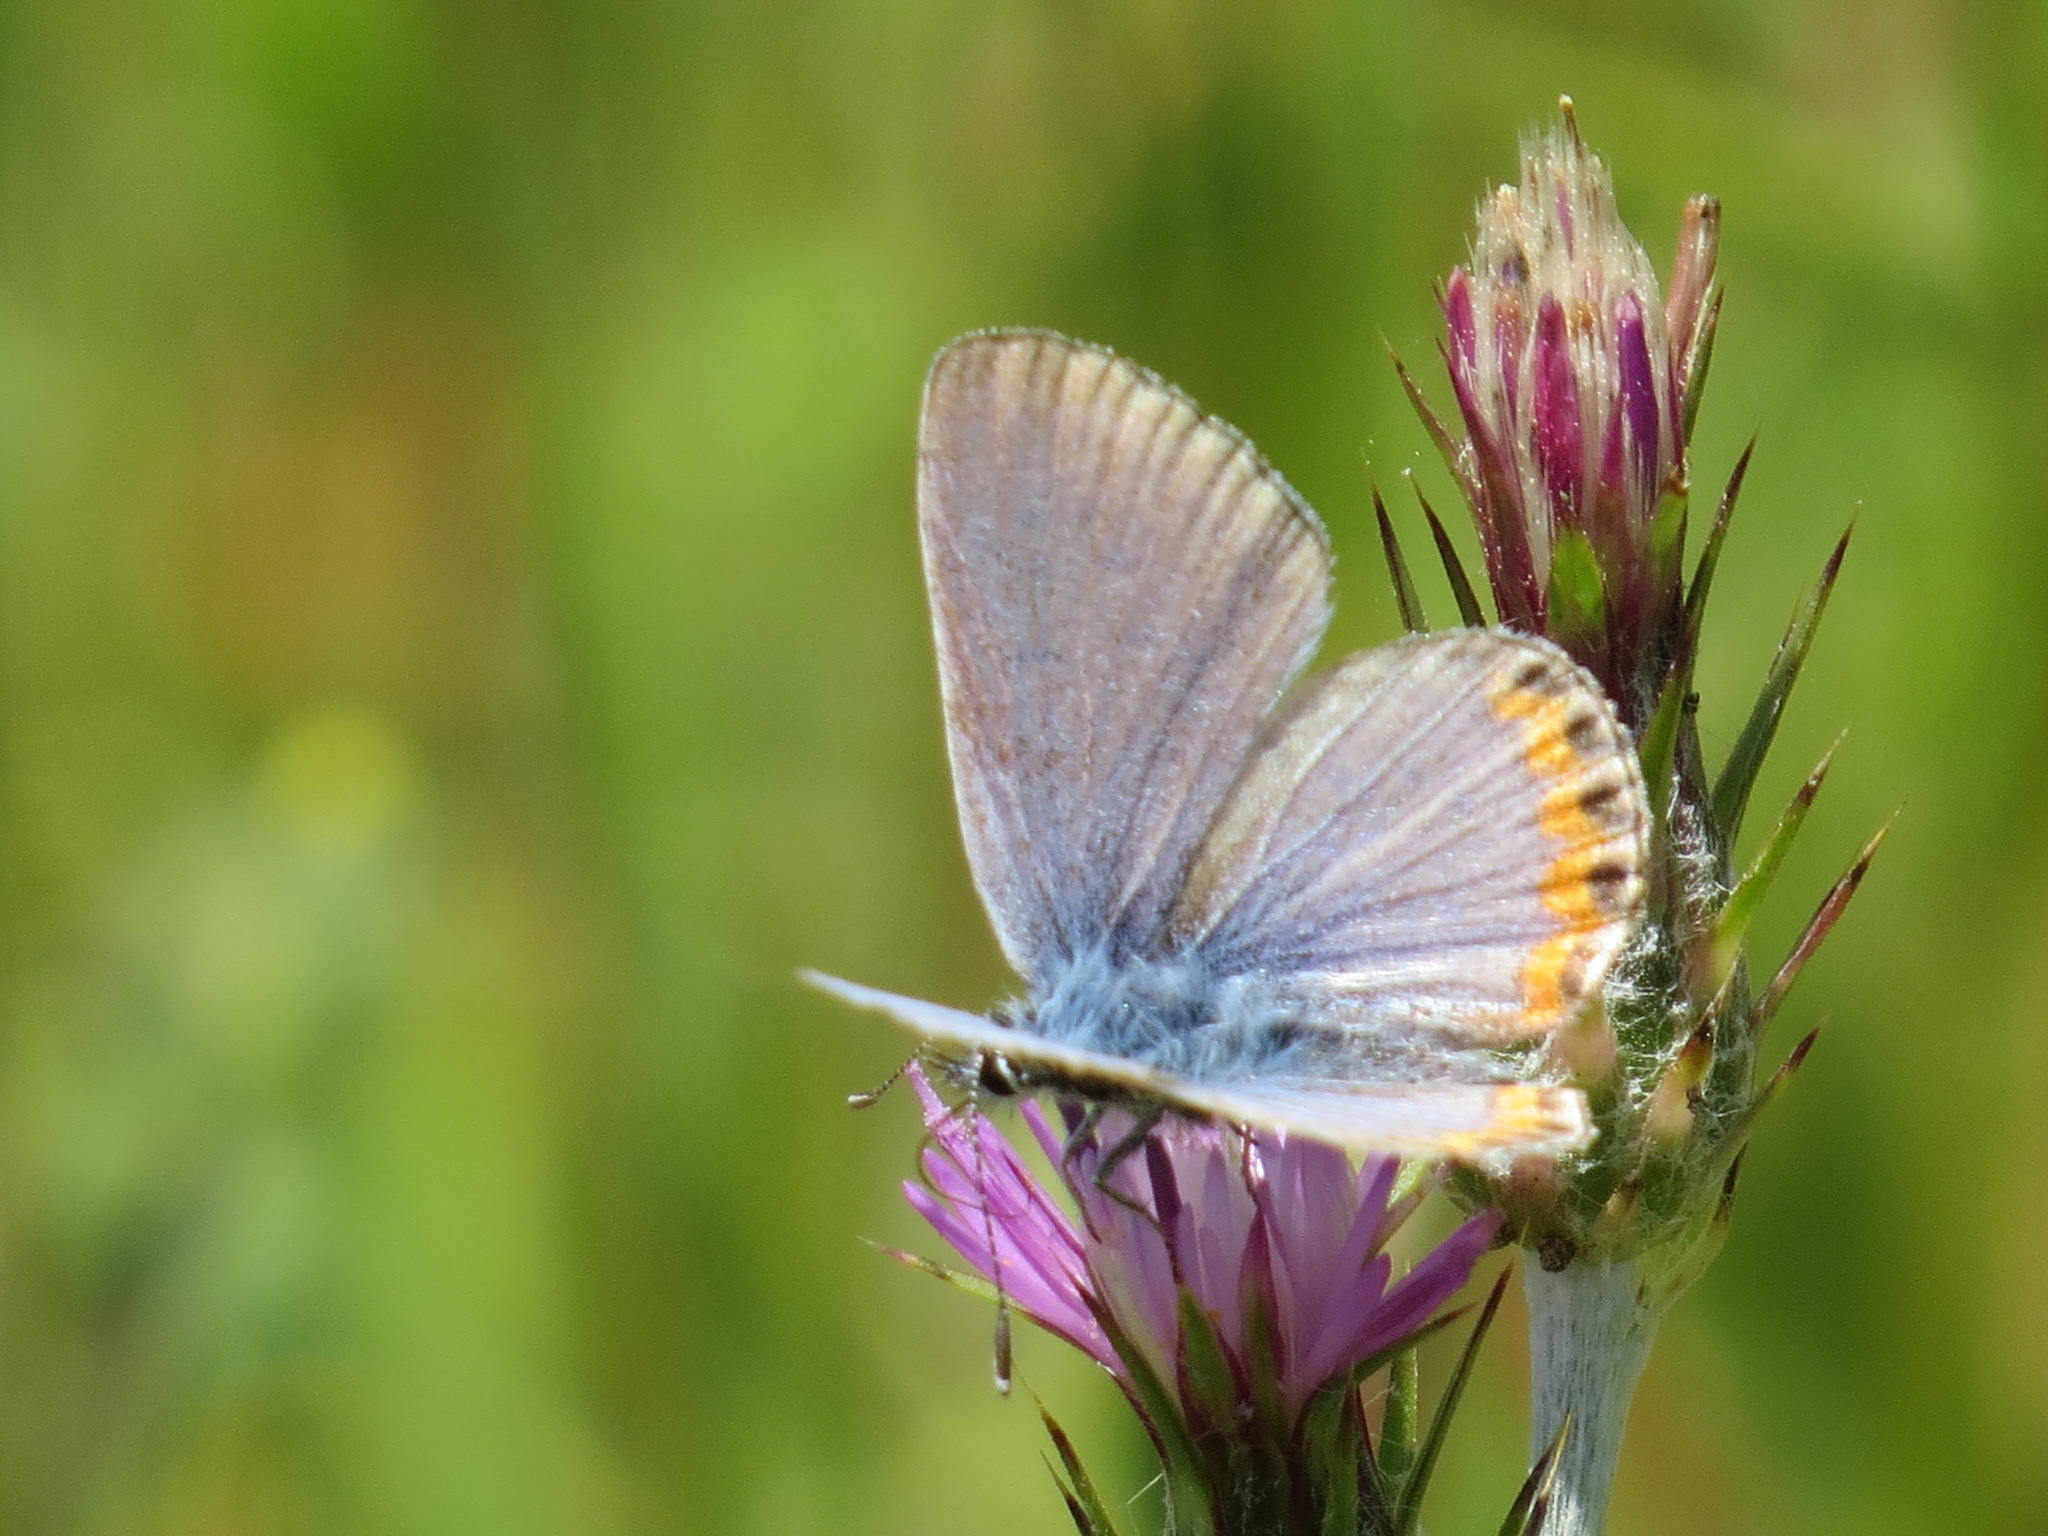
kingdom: Animalia
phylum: Arthropoda
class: Insecta
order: Lepidoptera
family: Lycaenidae
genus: Icaricia
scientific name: Icaricia acmon
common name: Acmon blue
